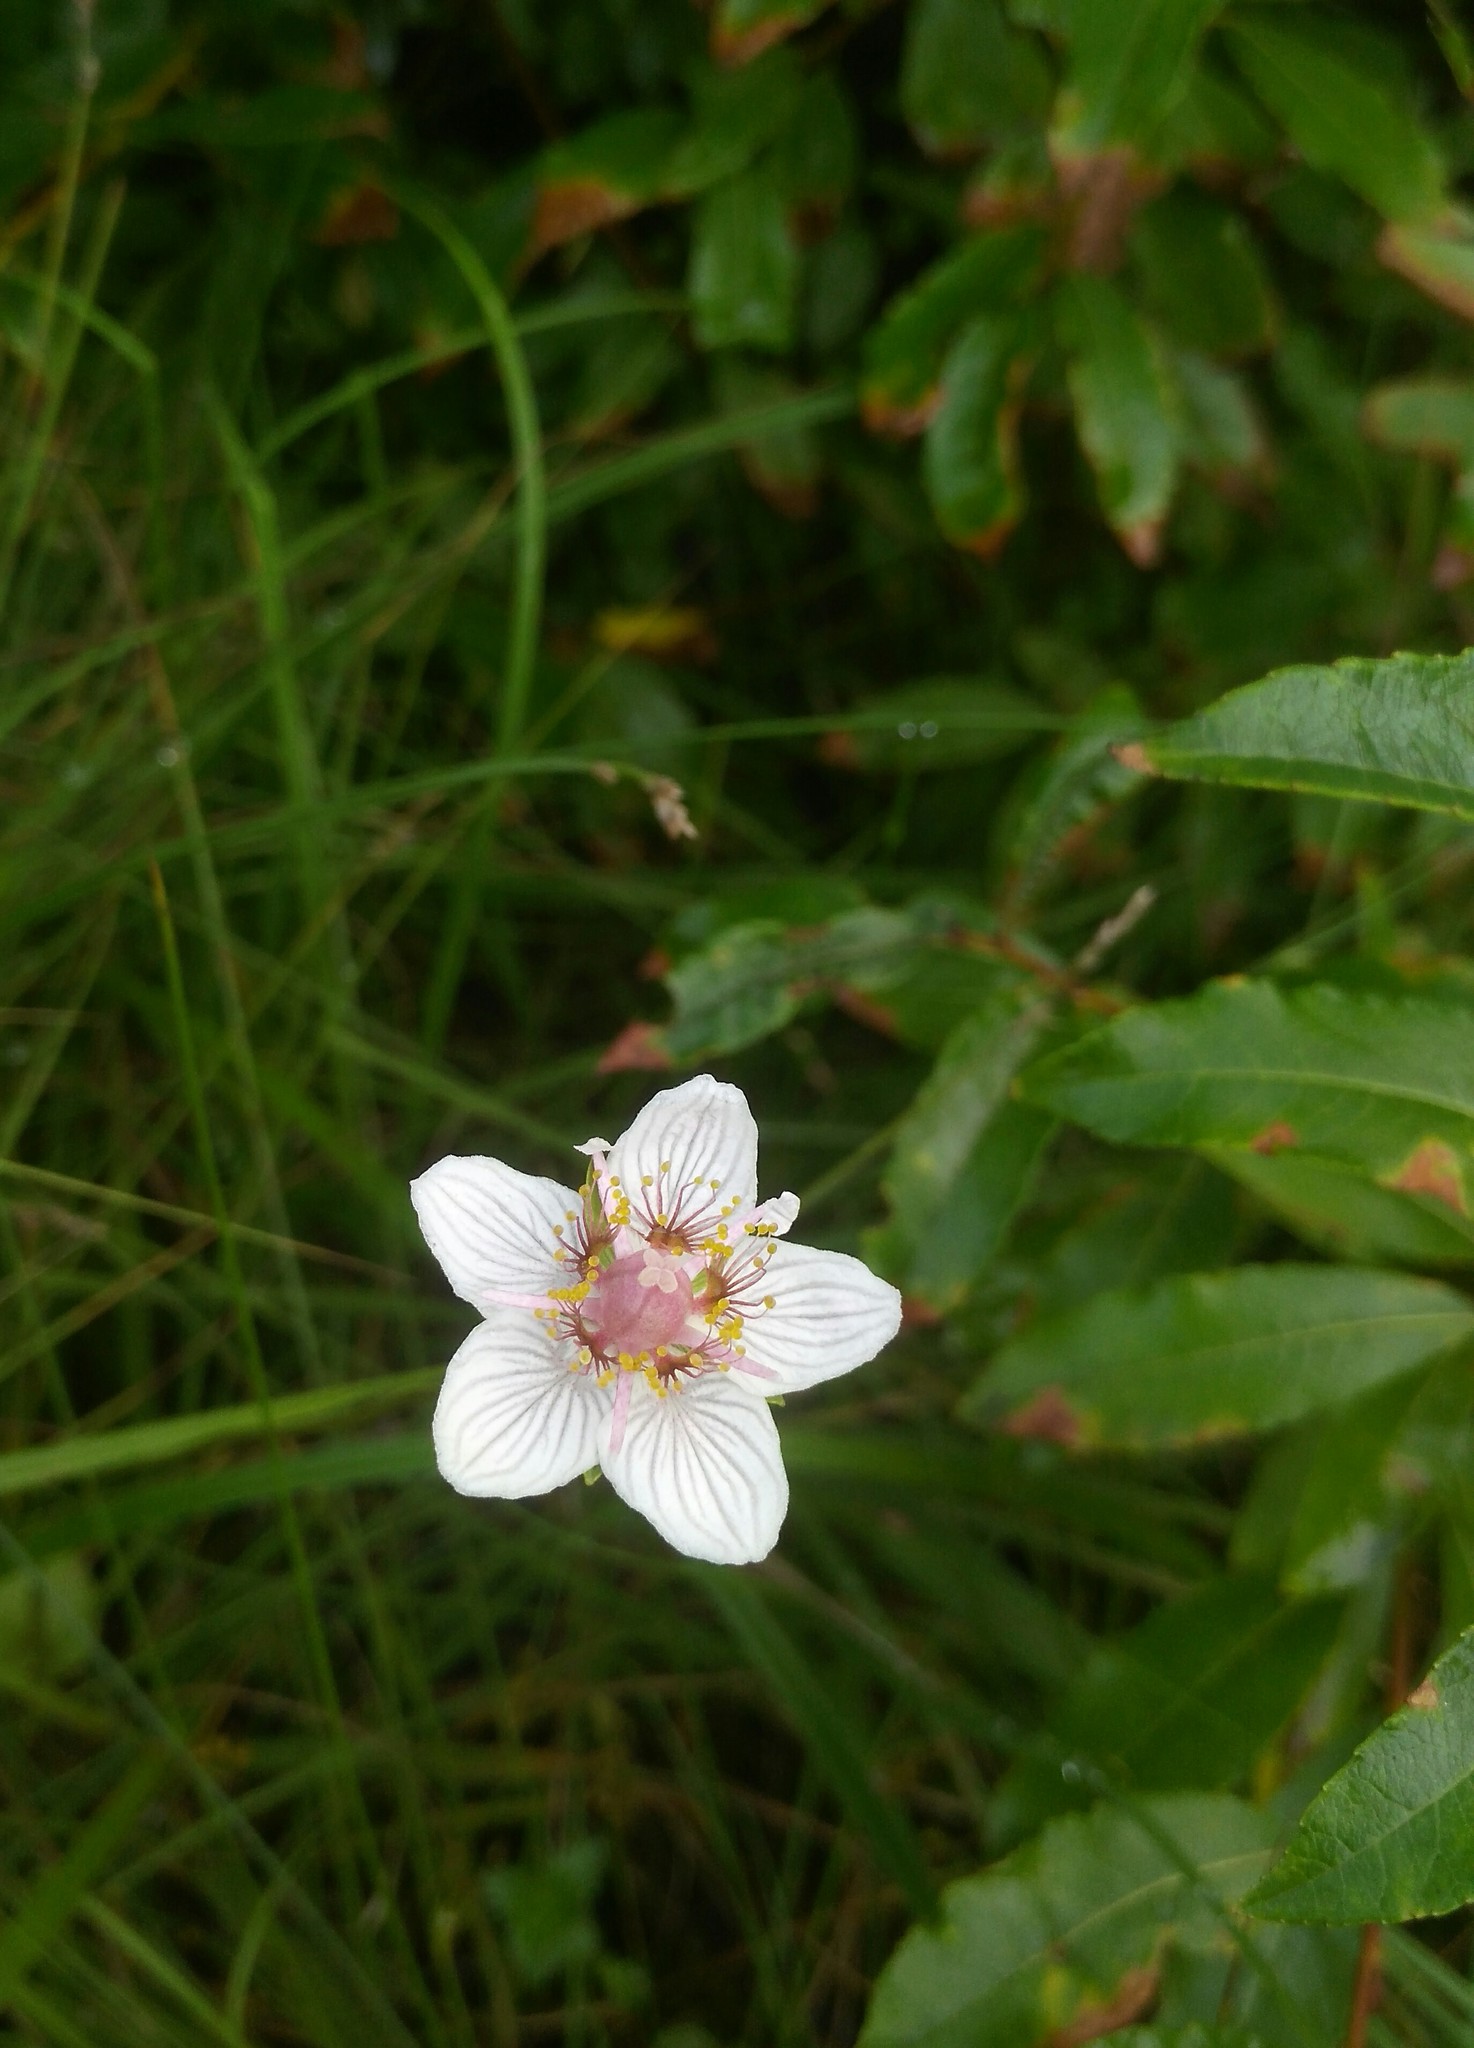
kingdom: Plantae
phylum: Tracheophyta
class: Magnoliopsida
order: Celastrales
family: Parnassiaceae
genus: Parnassia
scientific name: Parnassia palustris
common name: Grass-of-parnassus
